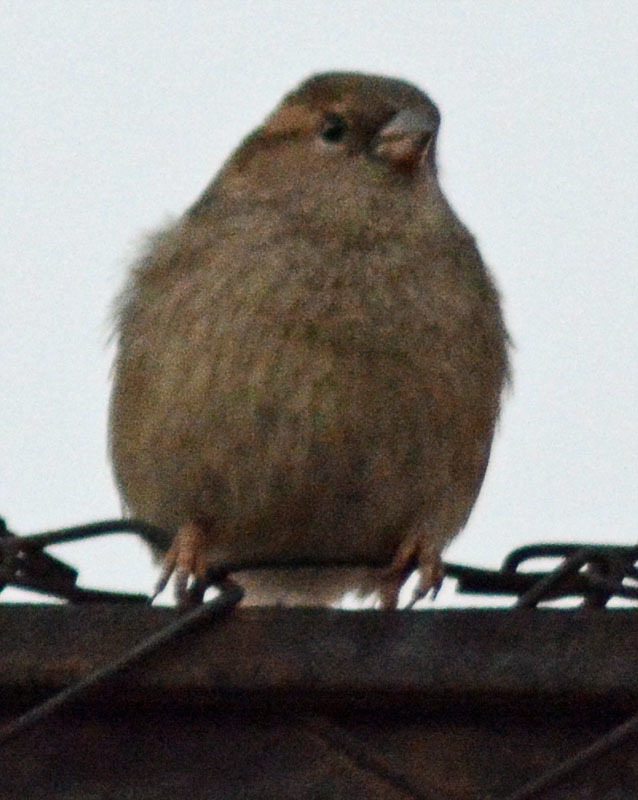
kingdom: Animalia
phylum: Chordata
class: Aves
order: Passeriformes
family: Passeridae
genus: Passer
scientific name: Passer domesticus
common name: House sparrow
